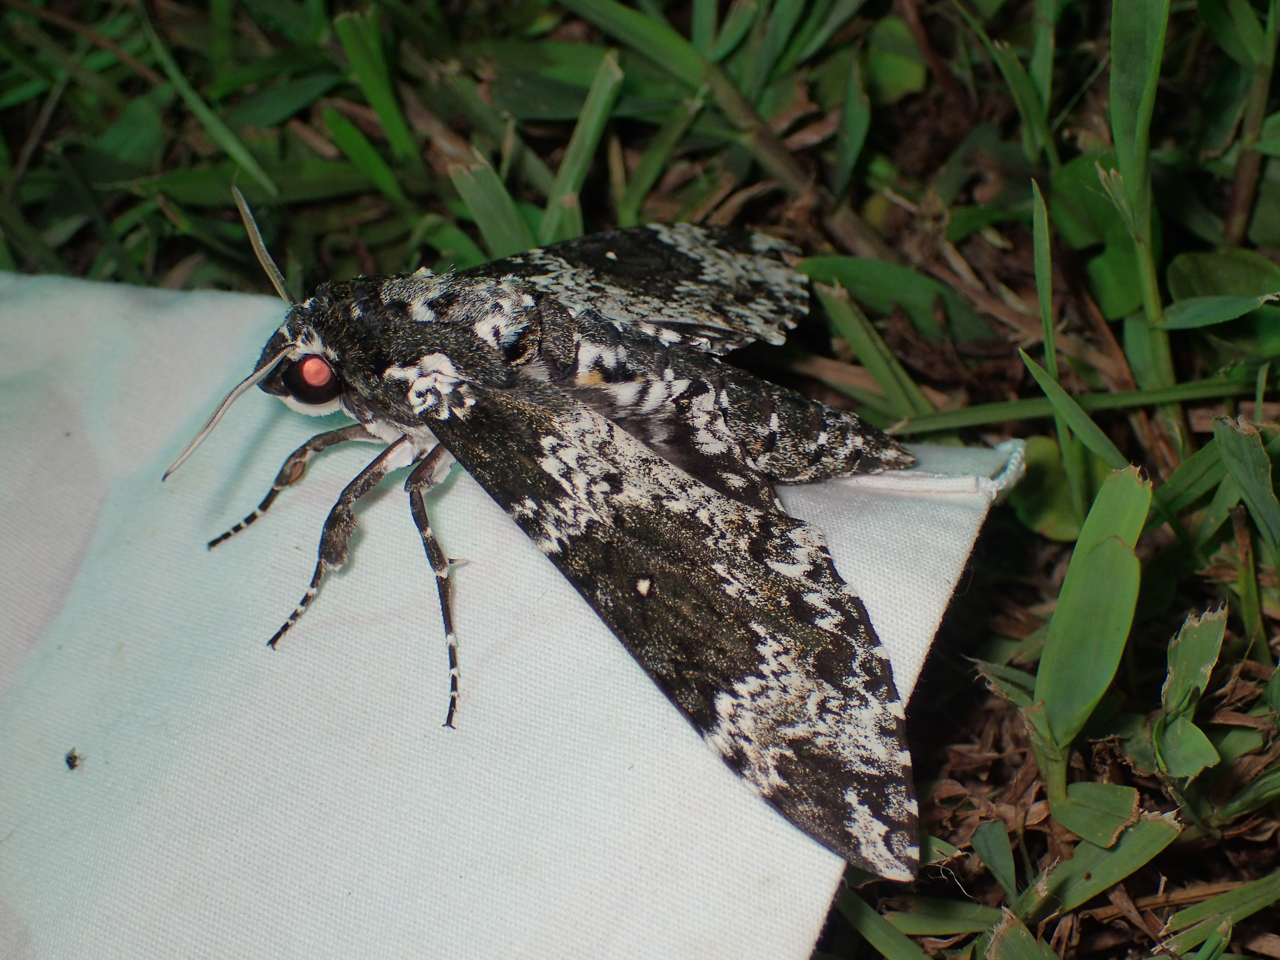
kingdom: Animalia
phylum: Arthropoda
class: Insecta
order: Lepidoptera
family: Sphingidae
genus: Manduca
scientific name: Manduca rustica
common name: Rustic sphinx
